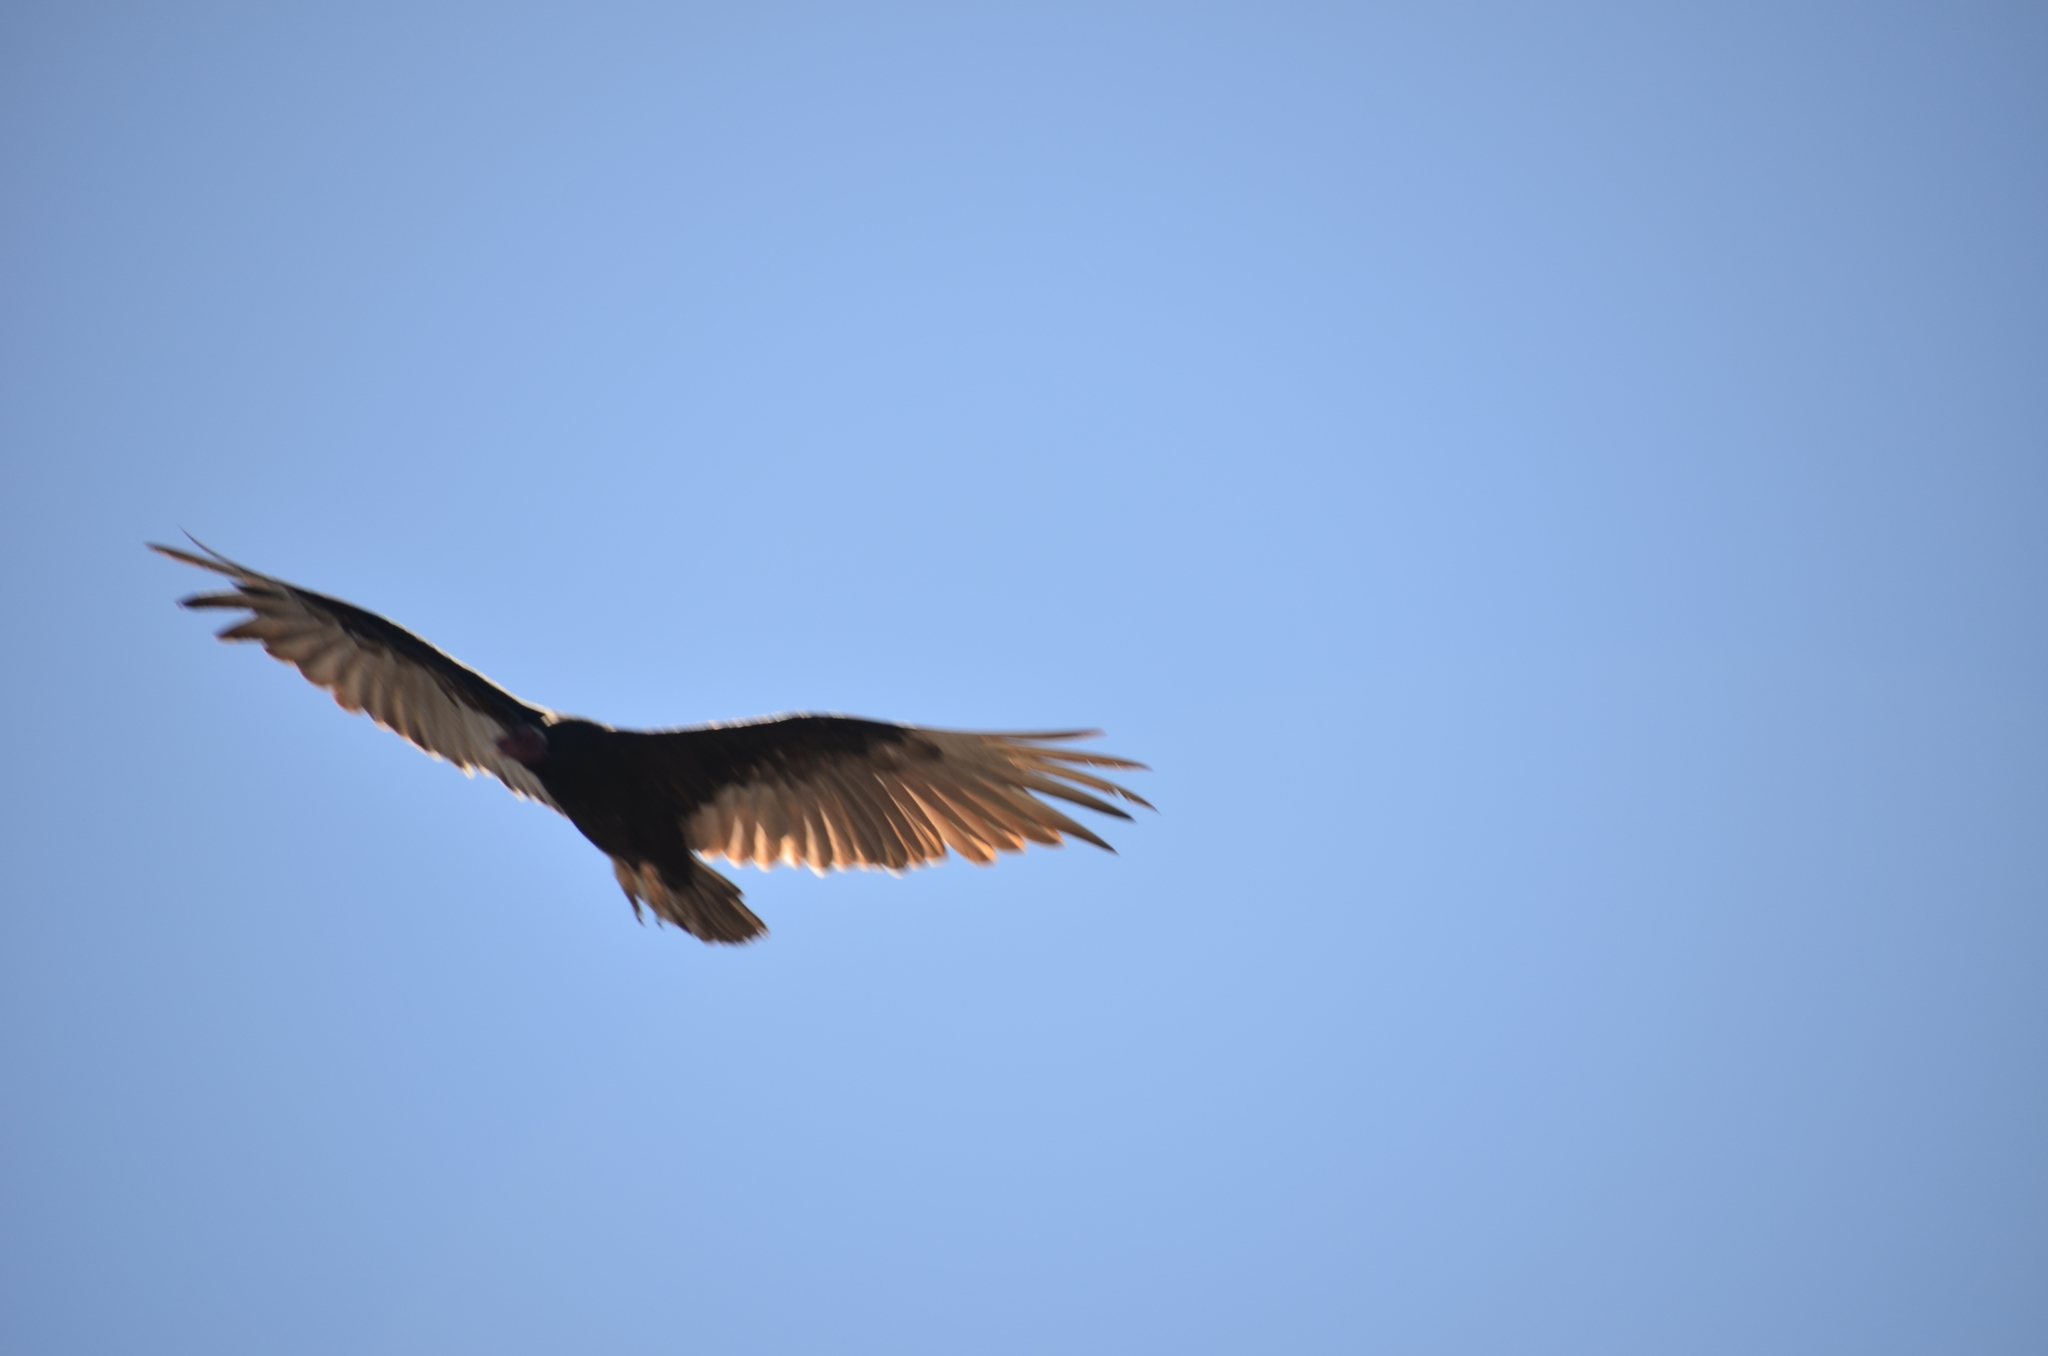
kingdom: Animalia
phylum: Chordata
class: Aves
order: Accipitriformes
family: Cathartidae
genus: Cathartes
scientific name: Cathartes aura
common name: Turkey vulture
